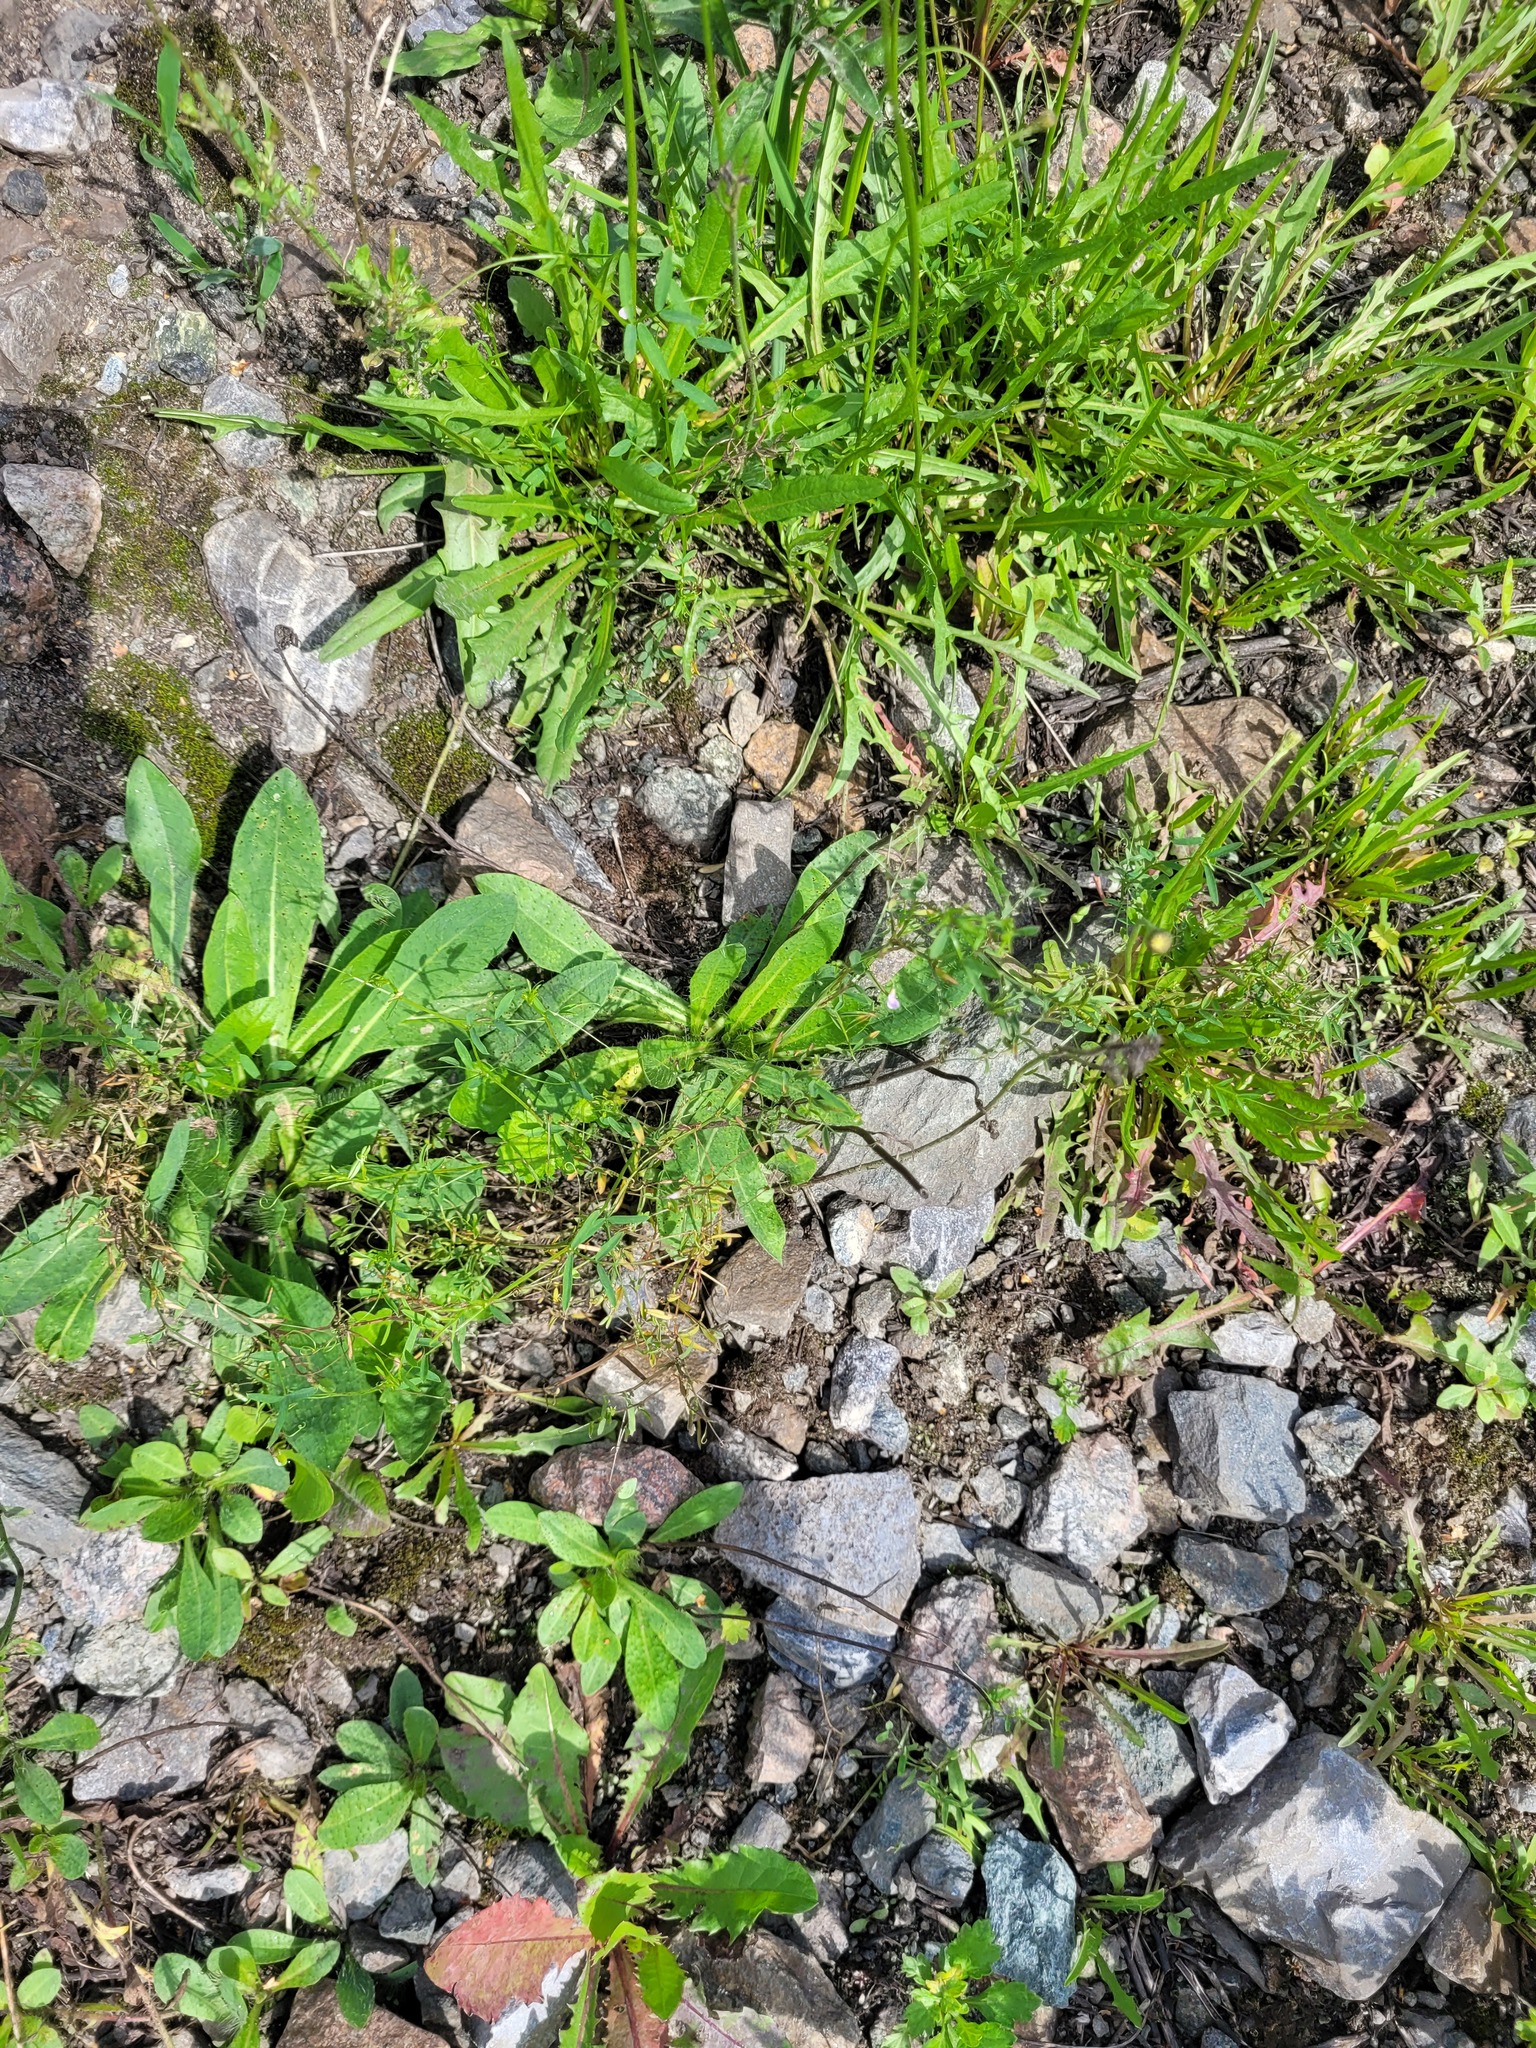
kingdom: Plantae
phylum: Tracheophyta
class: Magnoliopsida
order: Fabales
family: Fabaceae
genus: Vicia
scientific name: Vicia tetrasperma
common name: Smooth tare
